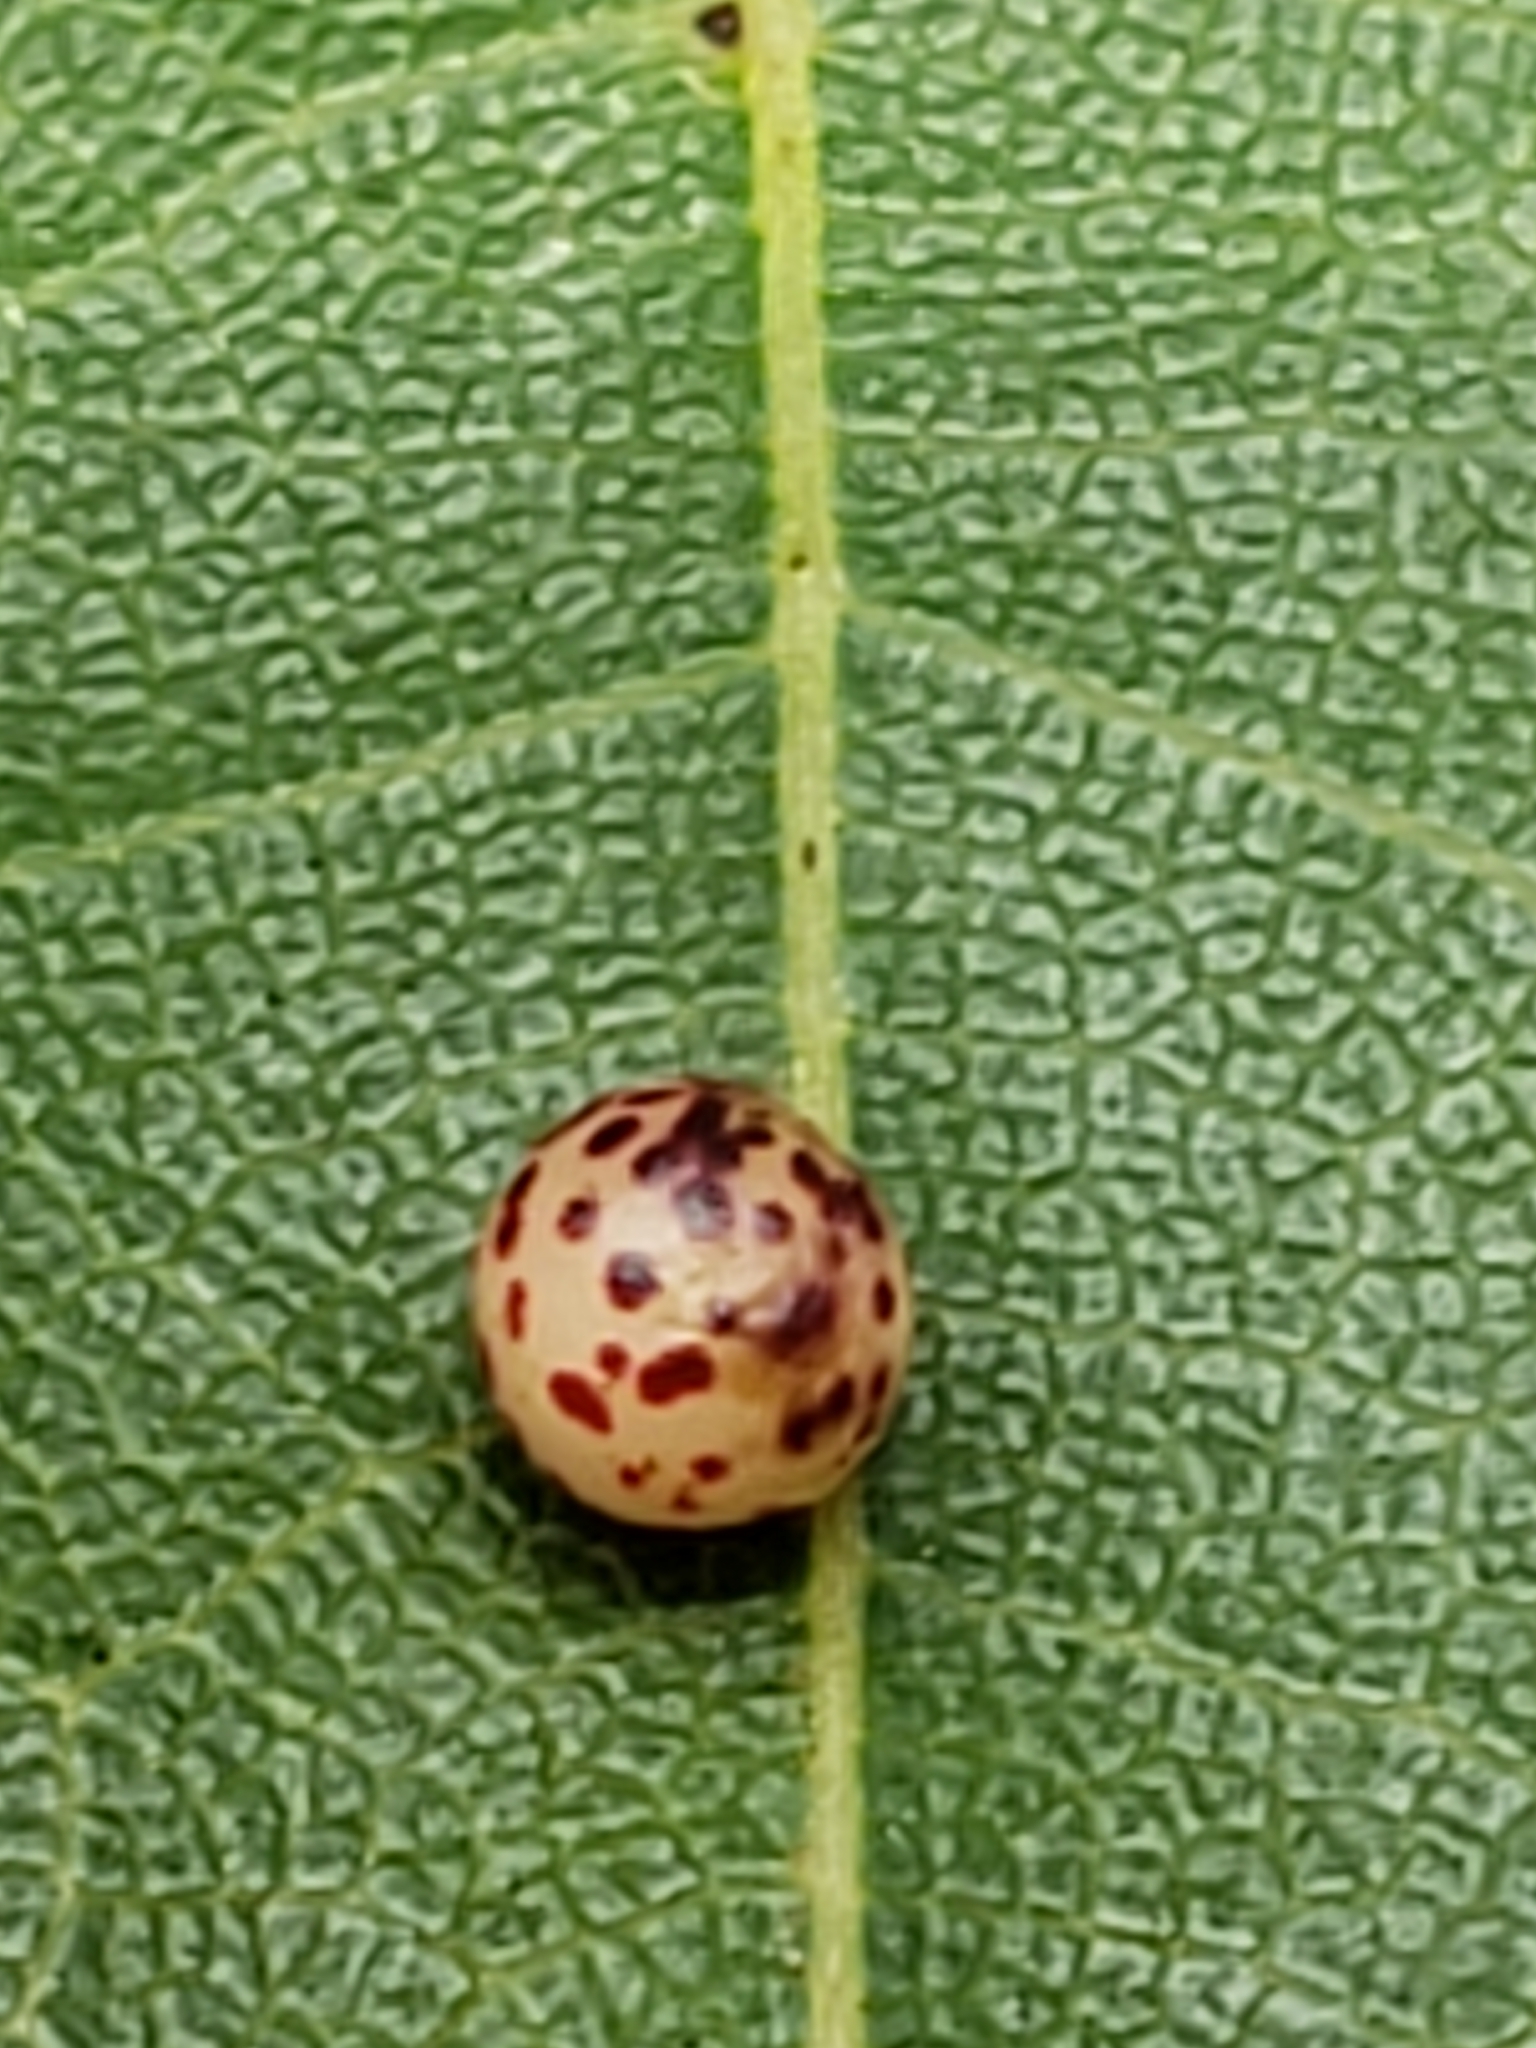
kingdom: Animalia
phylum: Arthropoda
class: Insecta
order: Hymenoptera
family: Cynipidae
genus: Zopheroteras
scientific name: Zopheroteras
